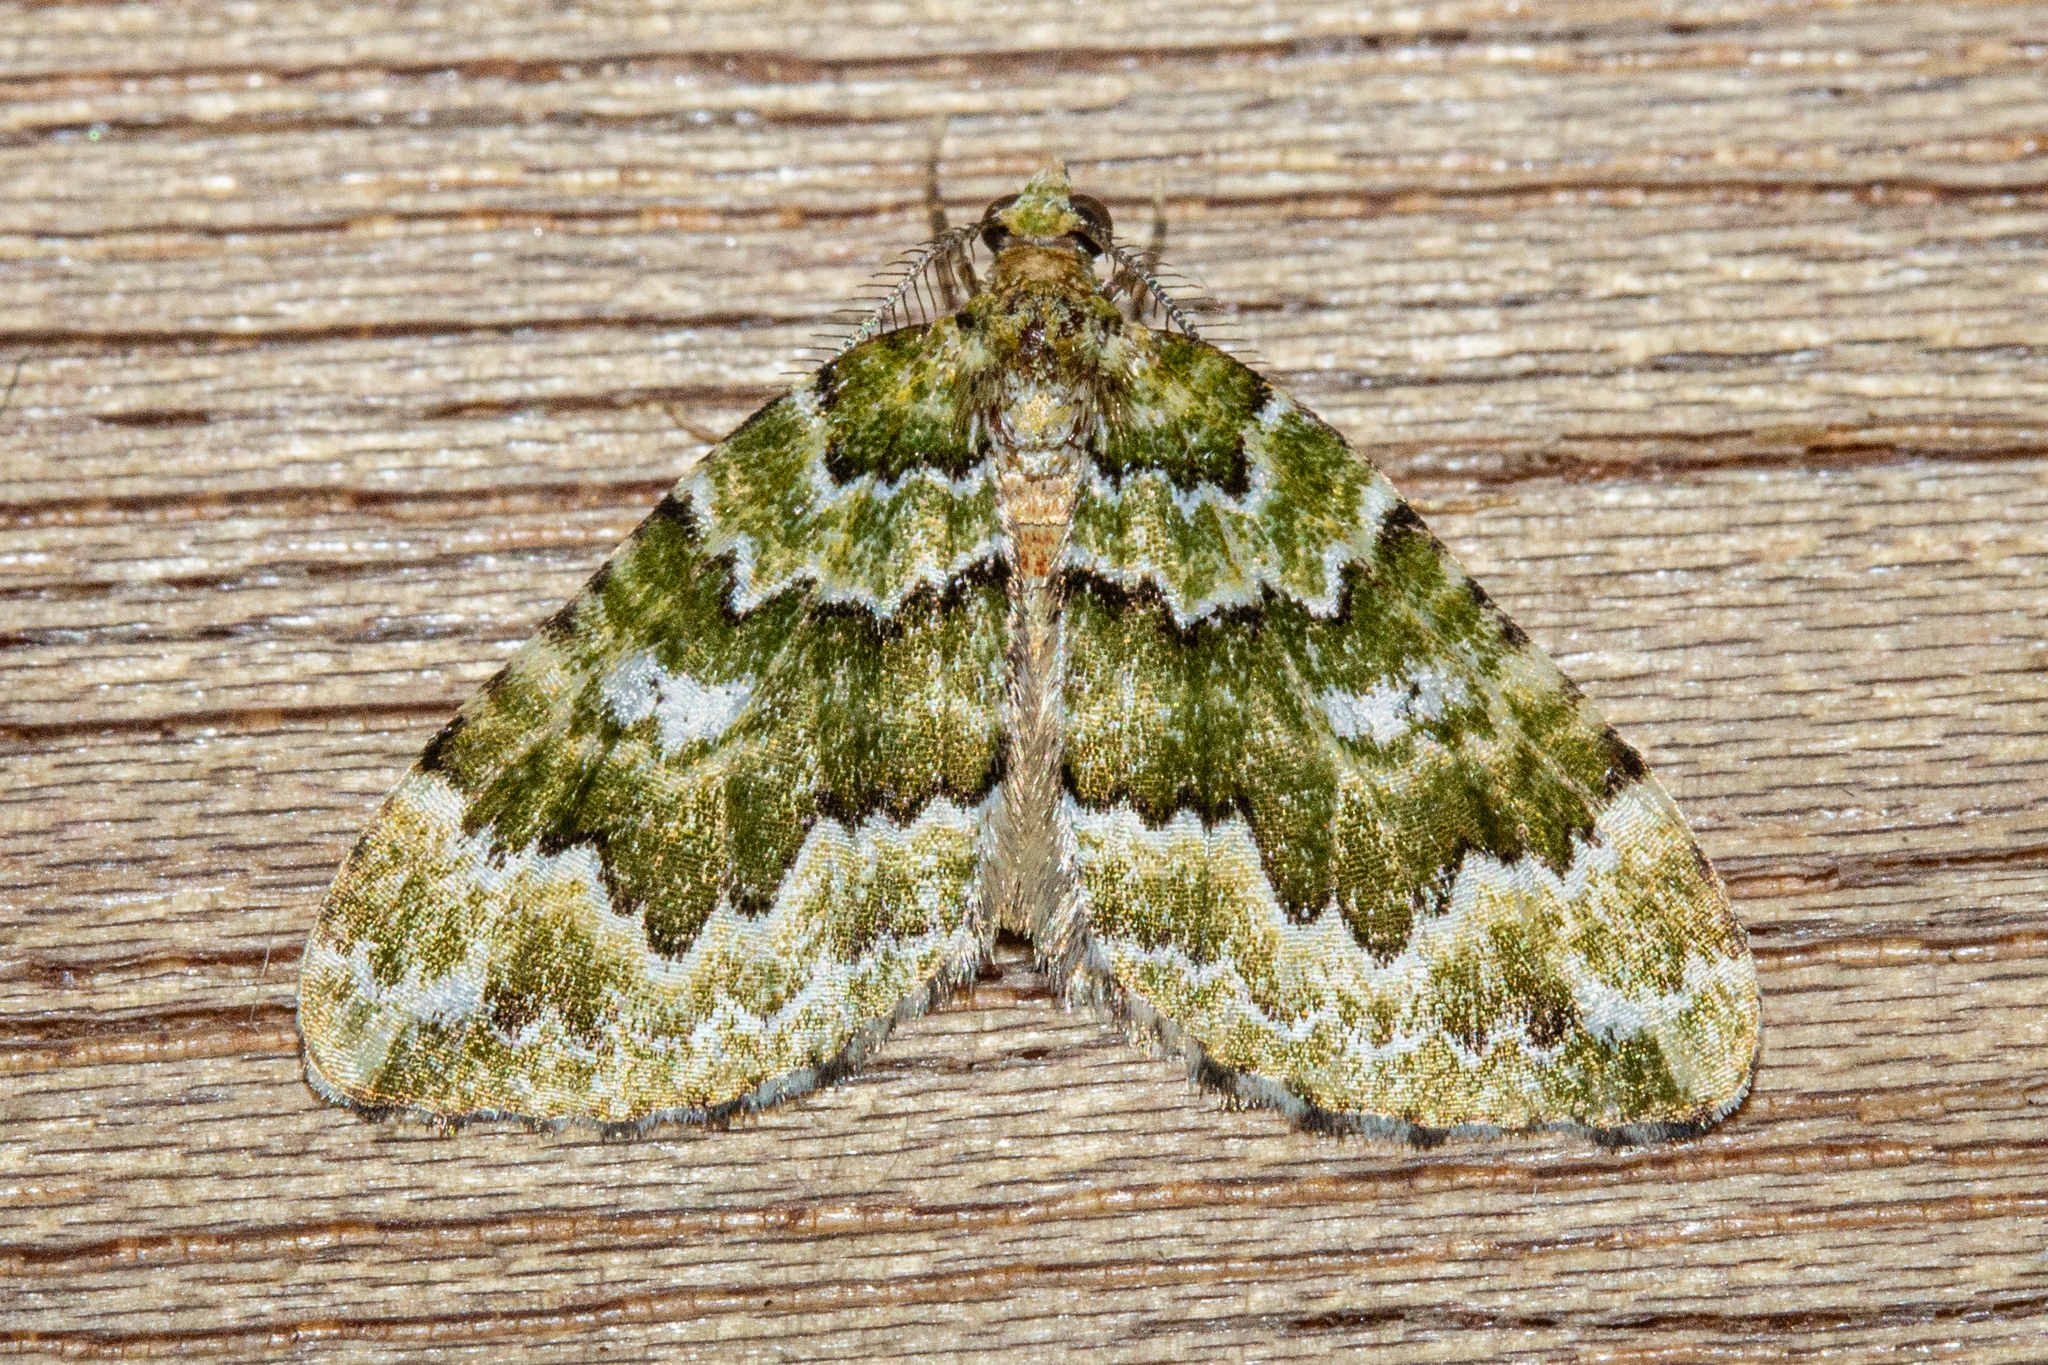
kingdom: Animalia
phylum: Arthropoda
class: Insecta
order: Lepidoptera
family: Geometridae
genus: Asaphodes
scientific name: Asaphodes beata
